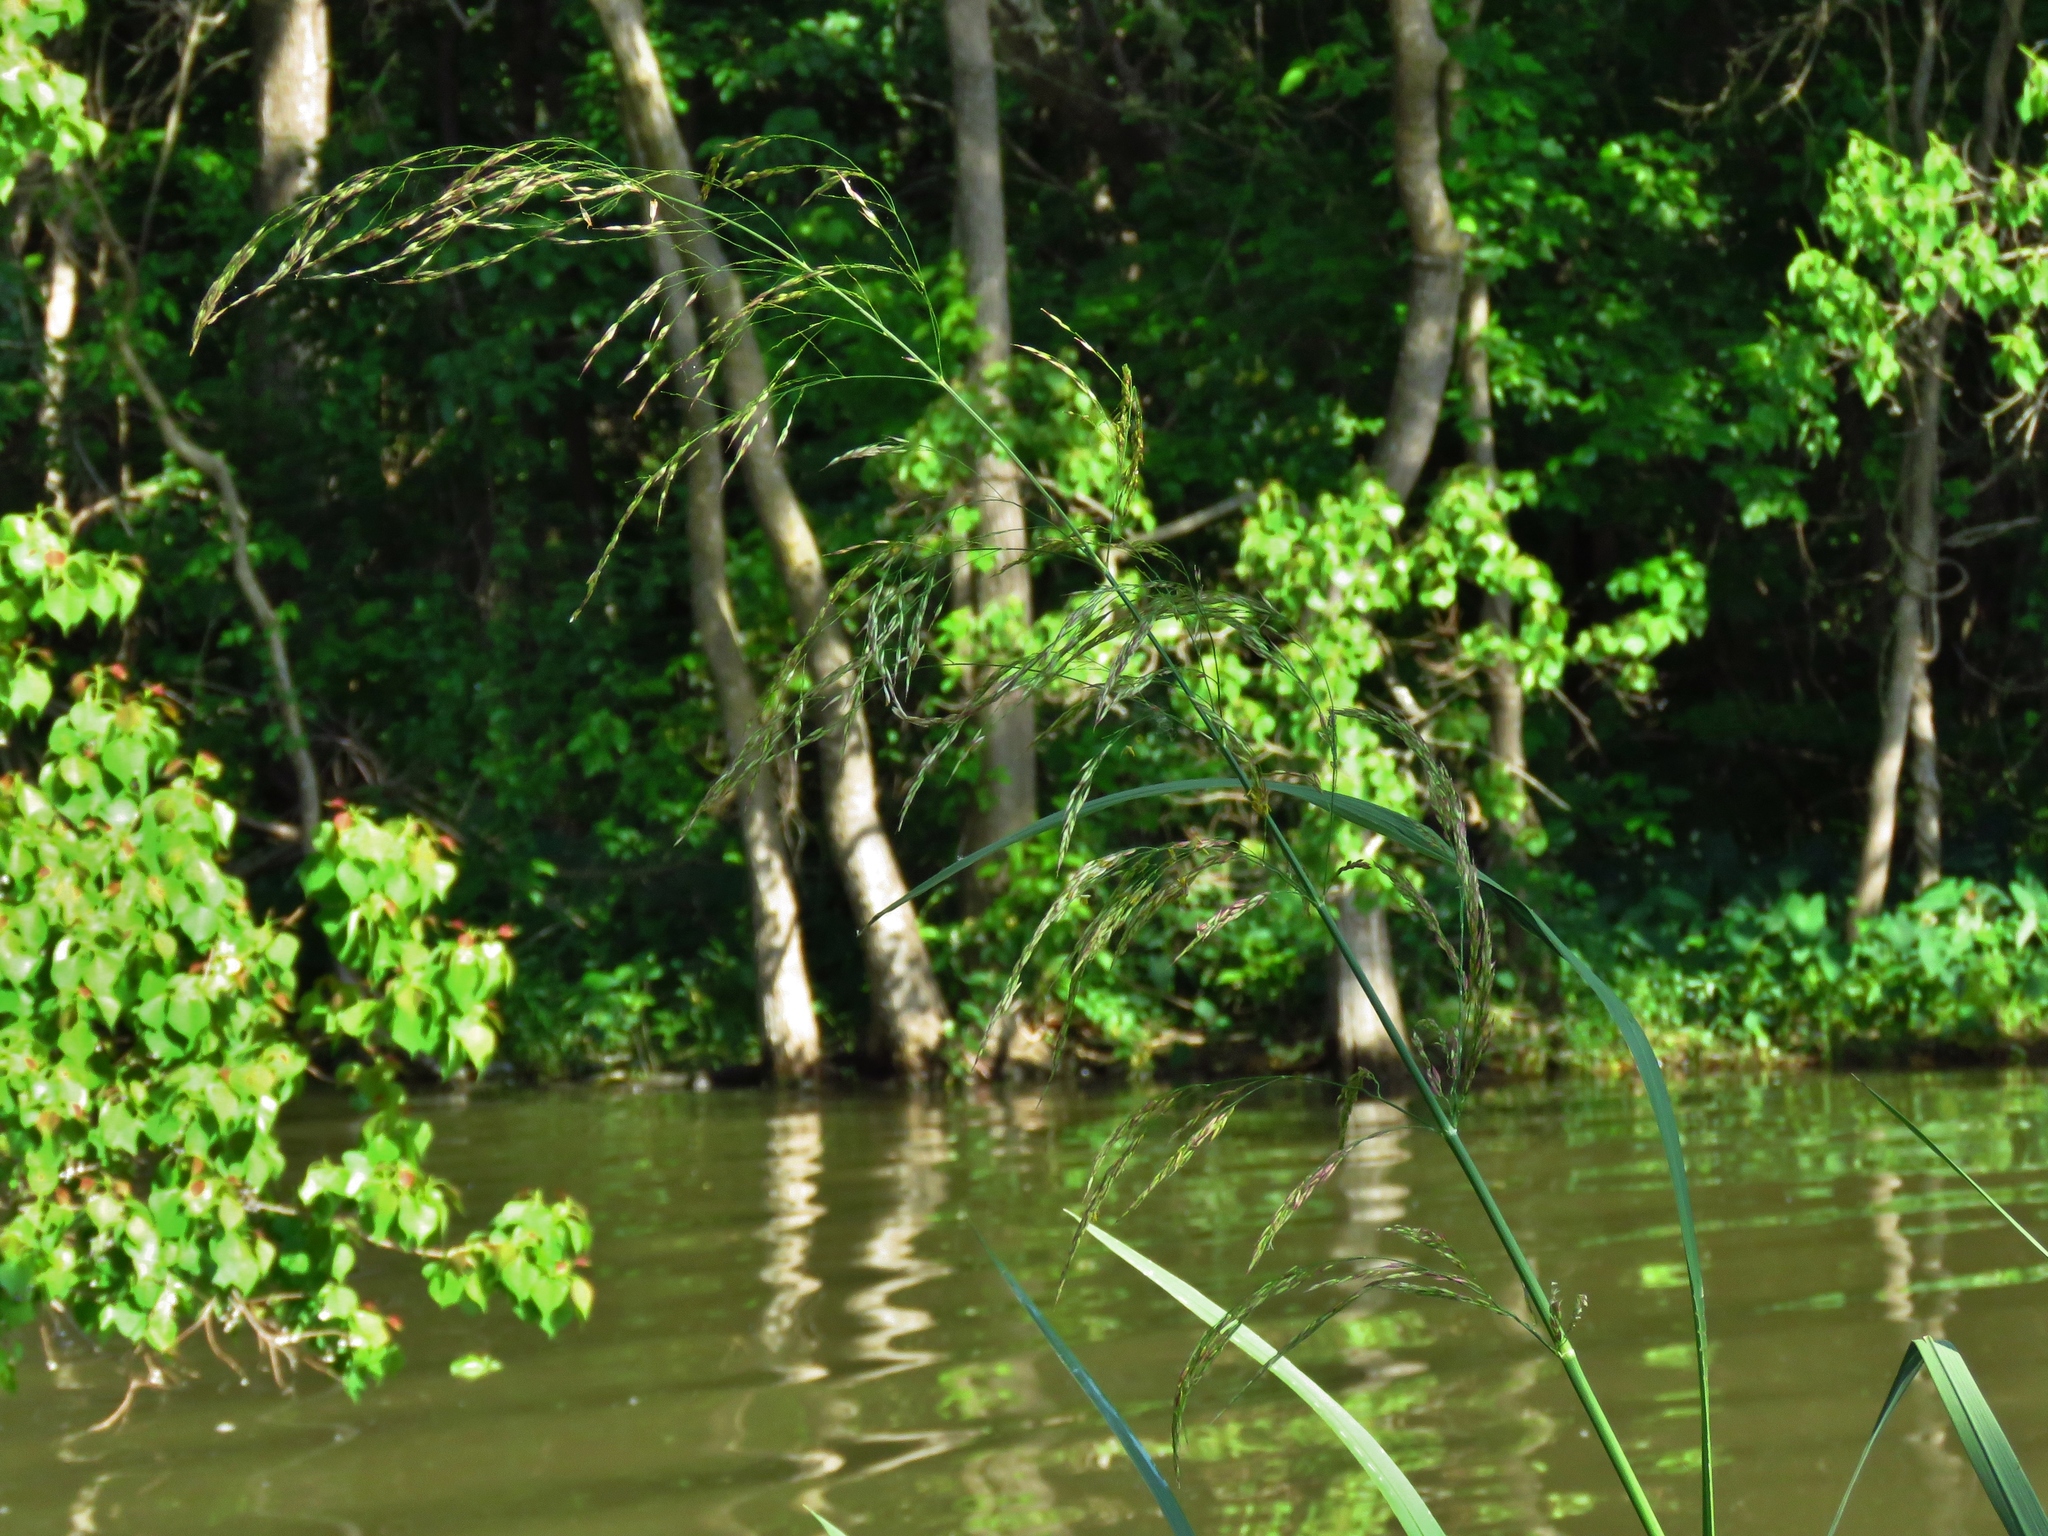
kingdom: Plantae
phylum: Tracheophyta
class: Liliopsida
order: Poales
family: Poaceae
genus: Panicum
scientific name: Panicum virgatum
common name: Switchgrass
